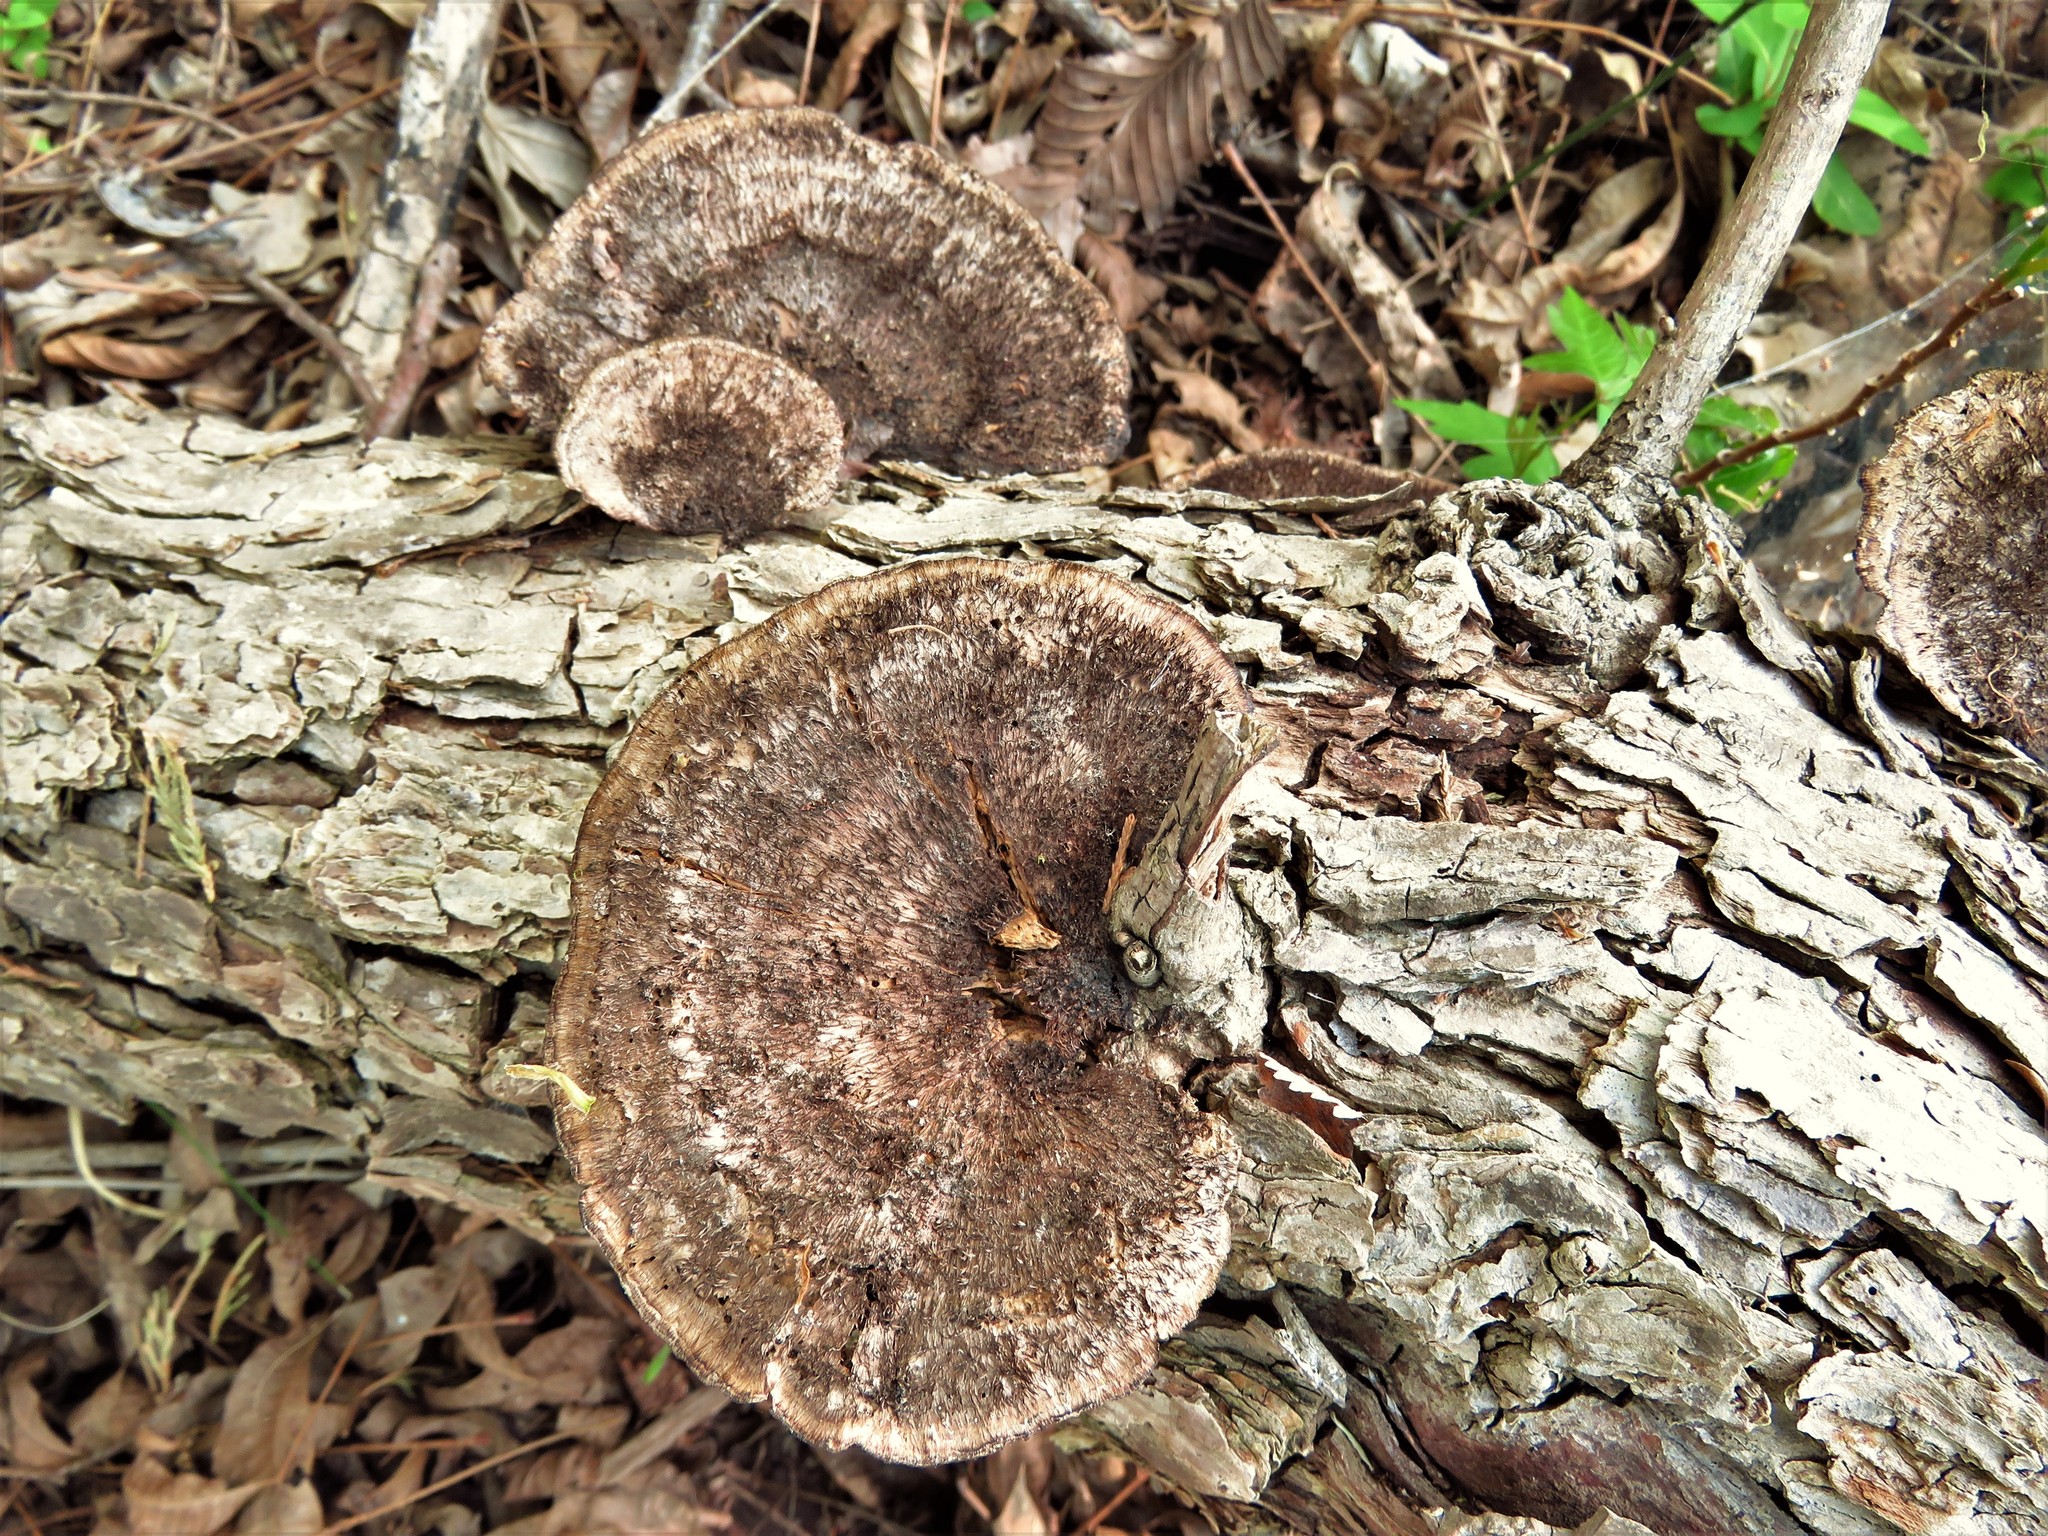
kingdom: Fungi
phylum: Basidiomycota
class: Agaricomycetes
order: Polyporales
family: Cerrenaceae
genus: Cerrena
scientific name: Cerrena hydnoides
